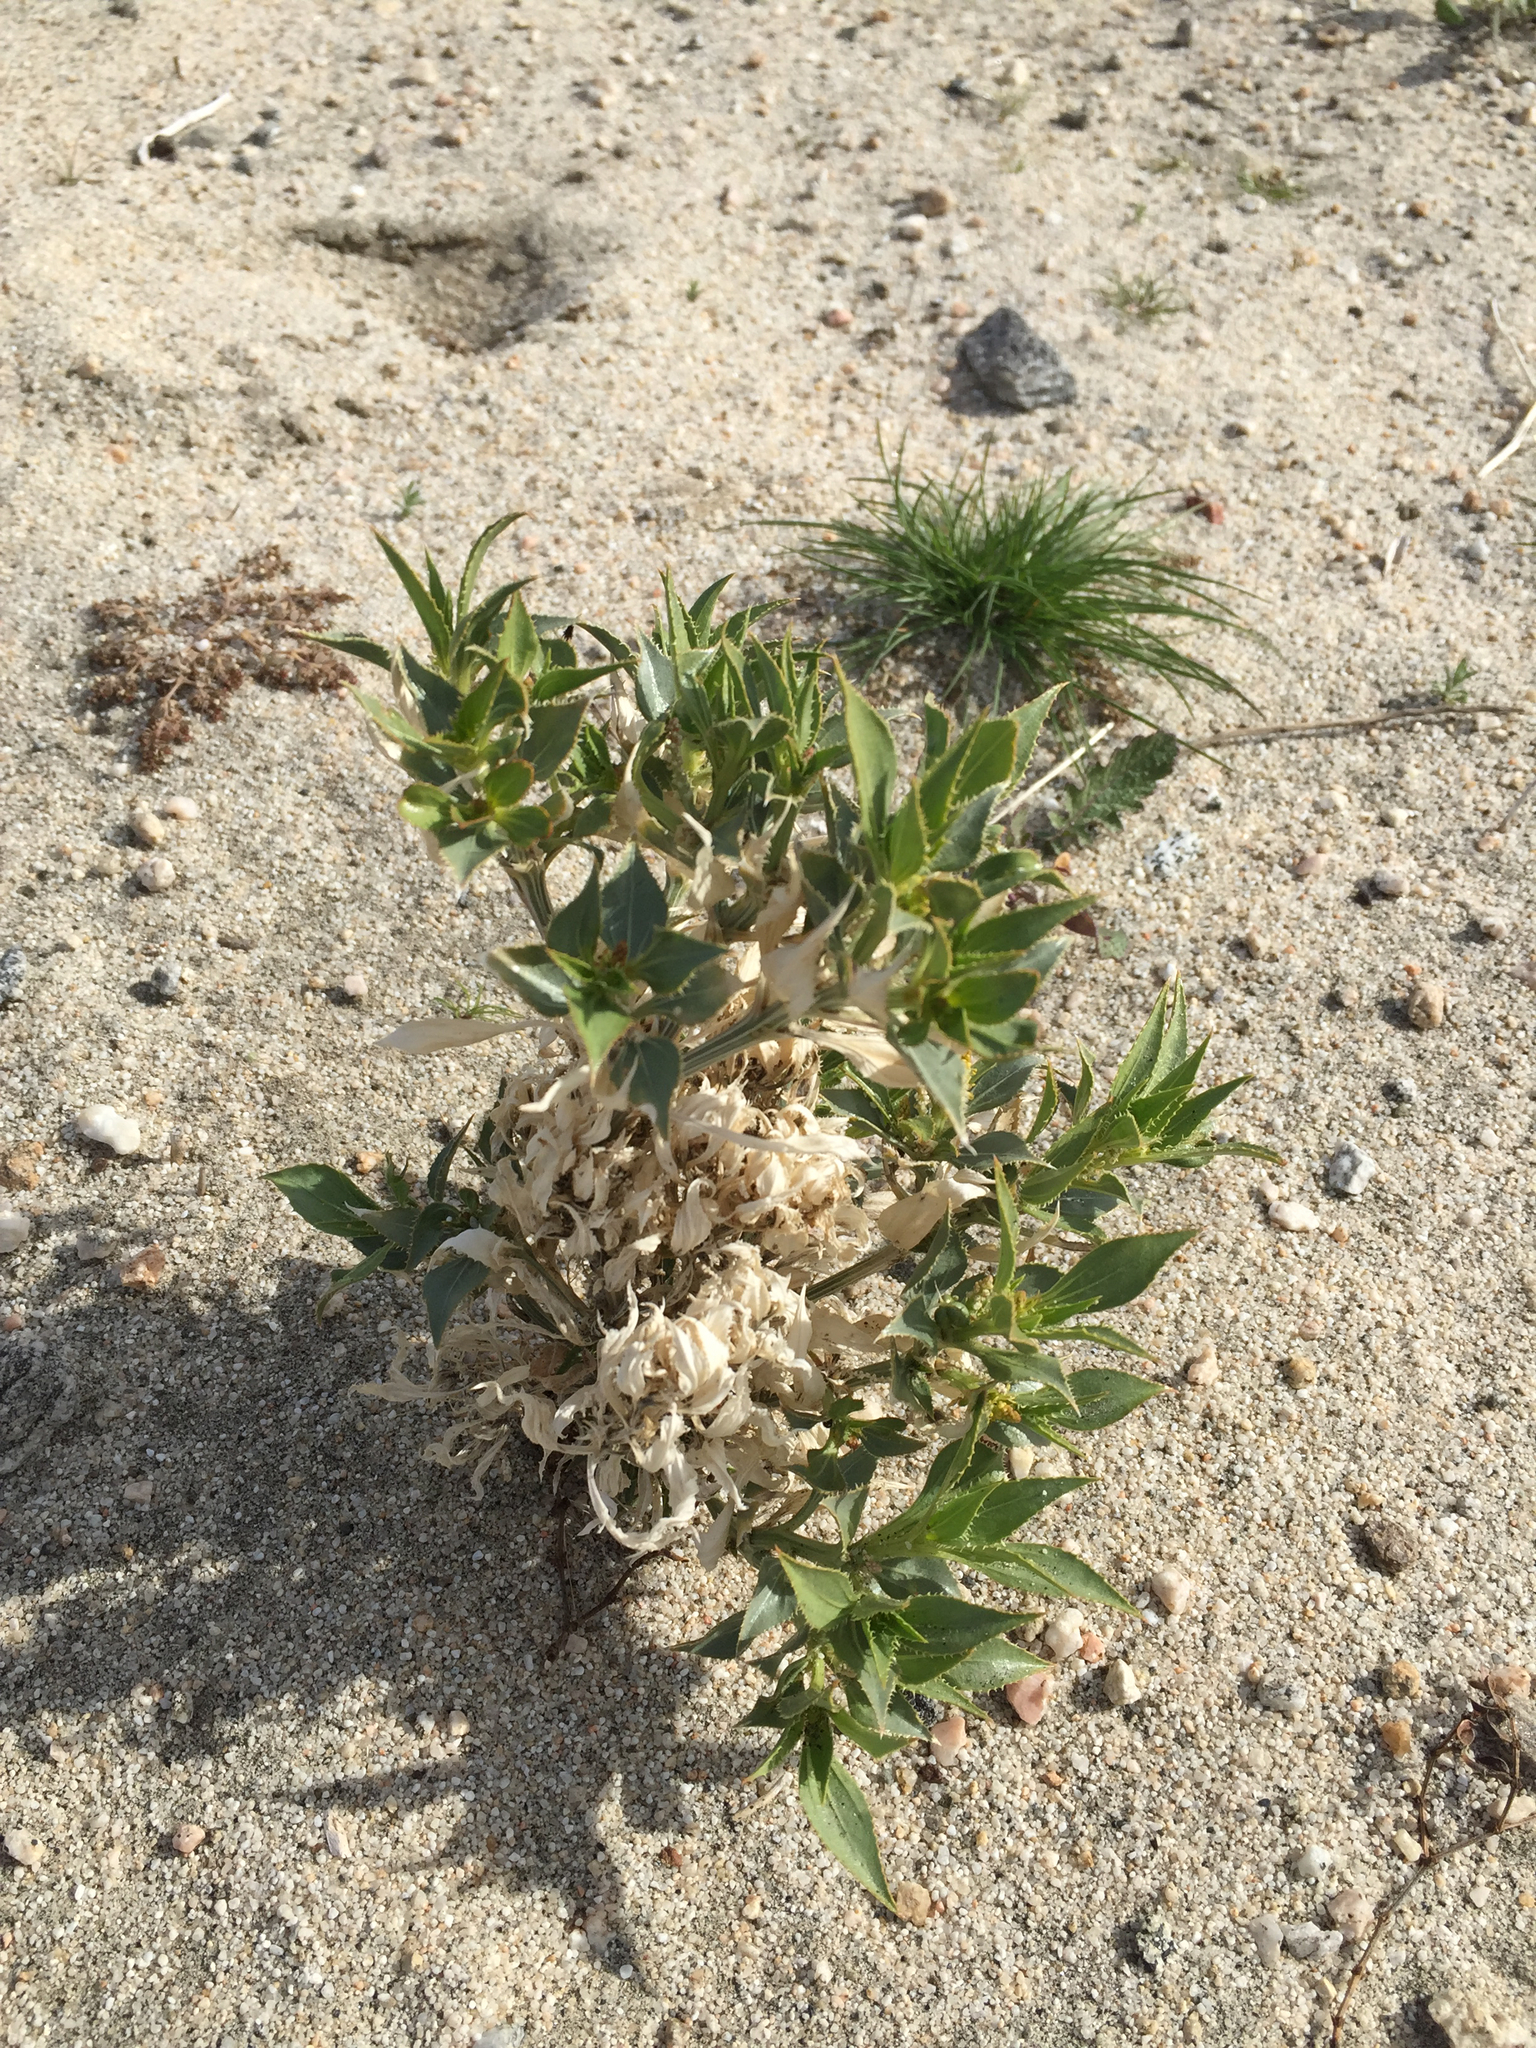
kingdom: Plantae
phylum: Tracheophyta
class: Magnoliopsida
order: Malpighiales
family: Euphorbiaceae
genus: Stillingia
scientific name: Stillingia spinulosa
